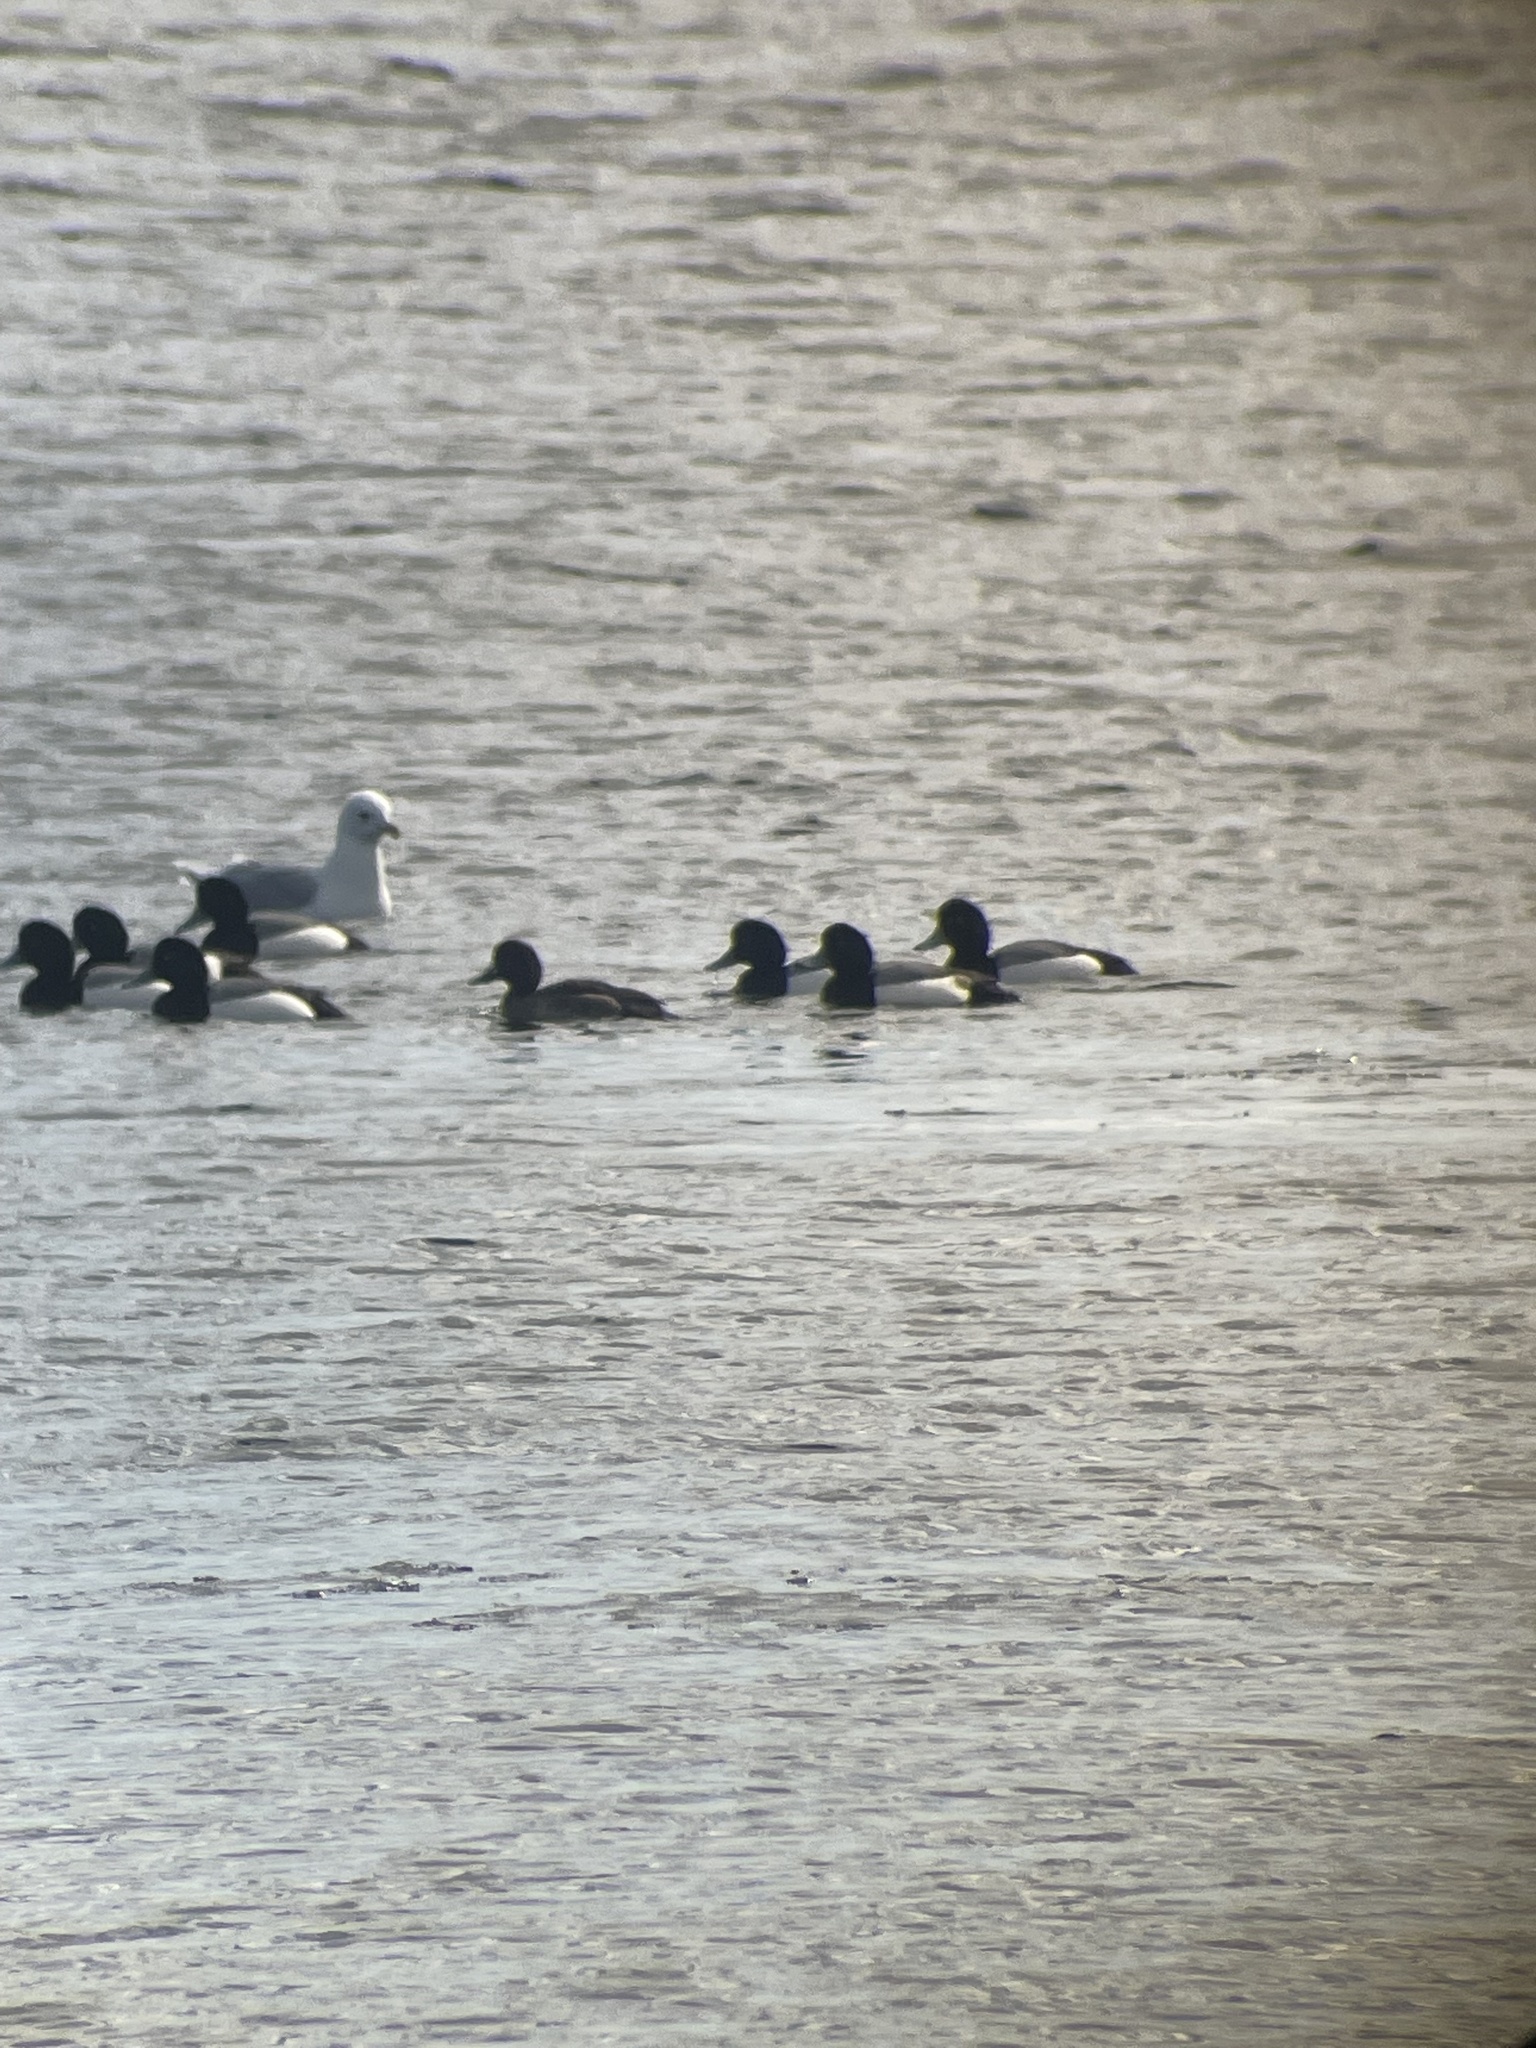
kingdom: Animalia
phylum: Chordata
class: Aves
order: Anseriformes
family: Anatidae
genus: Aythya
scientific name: Aythya marila
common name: Greater scaup
